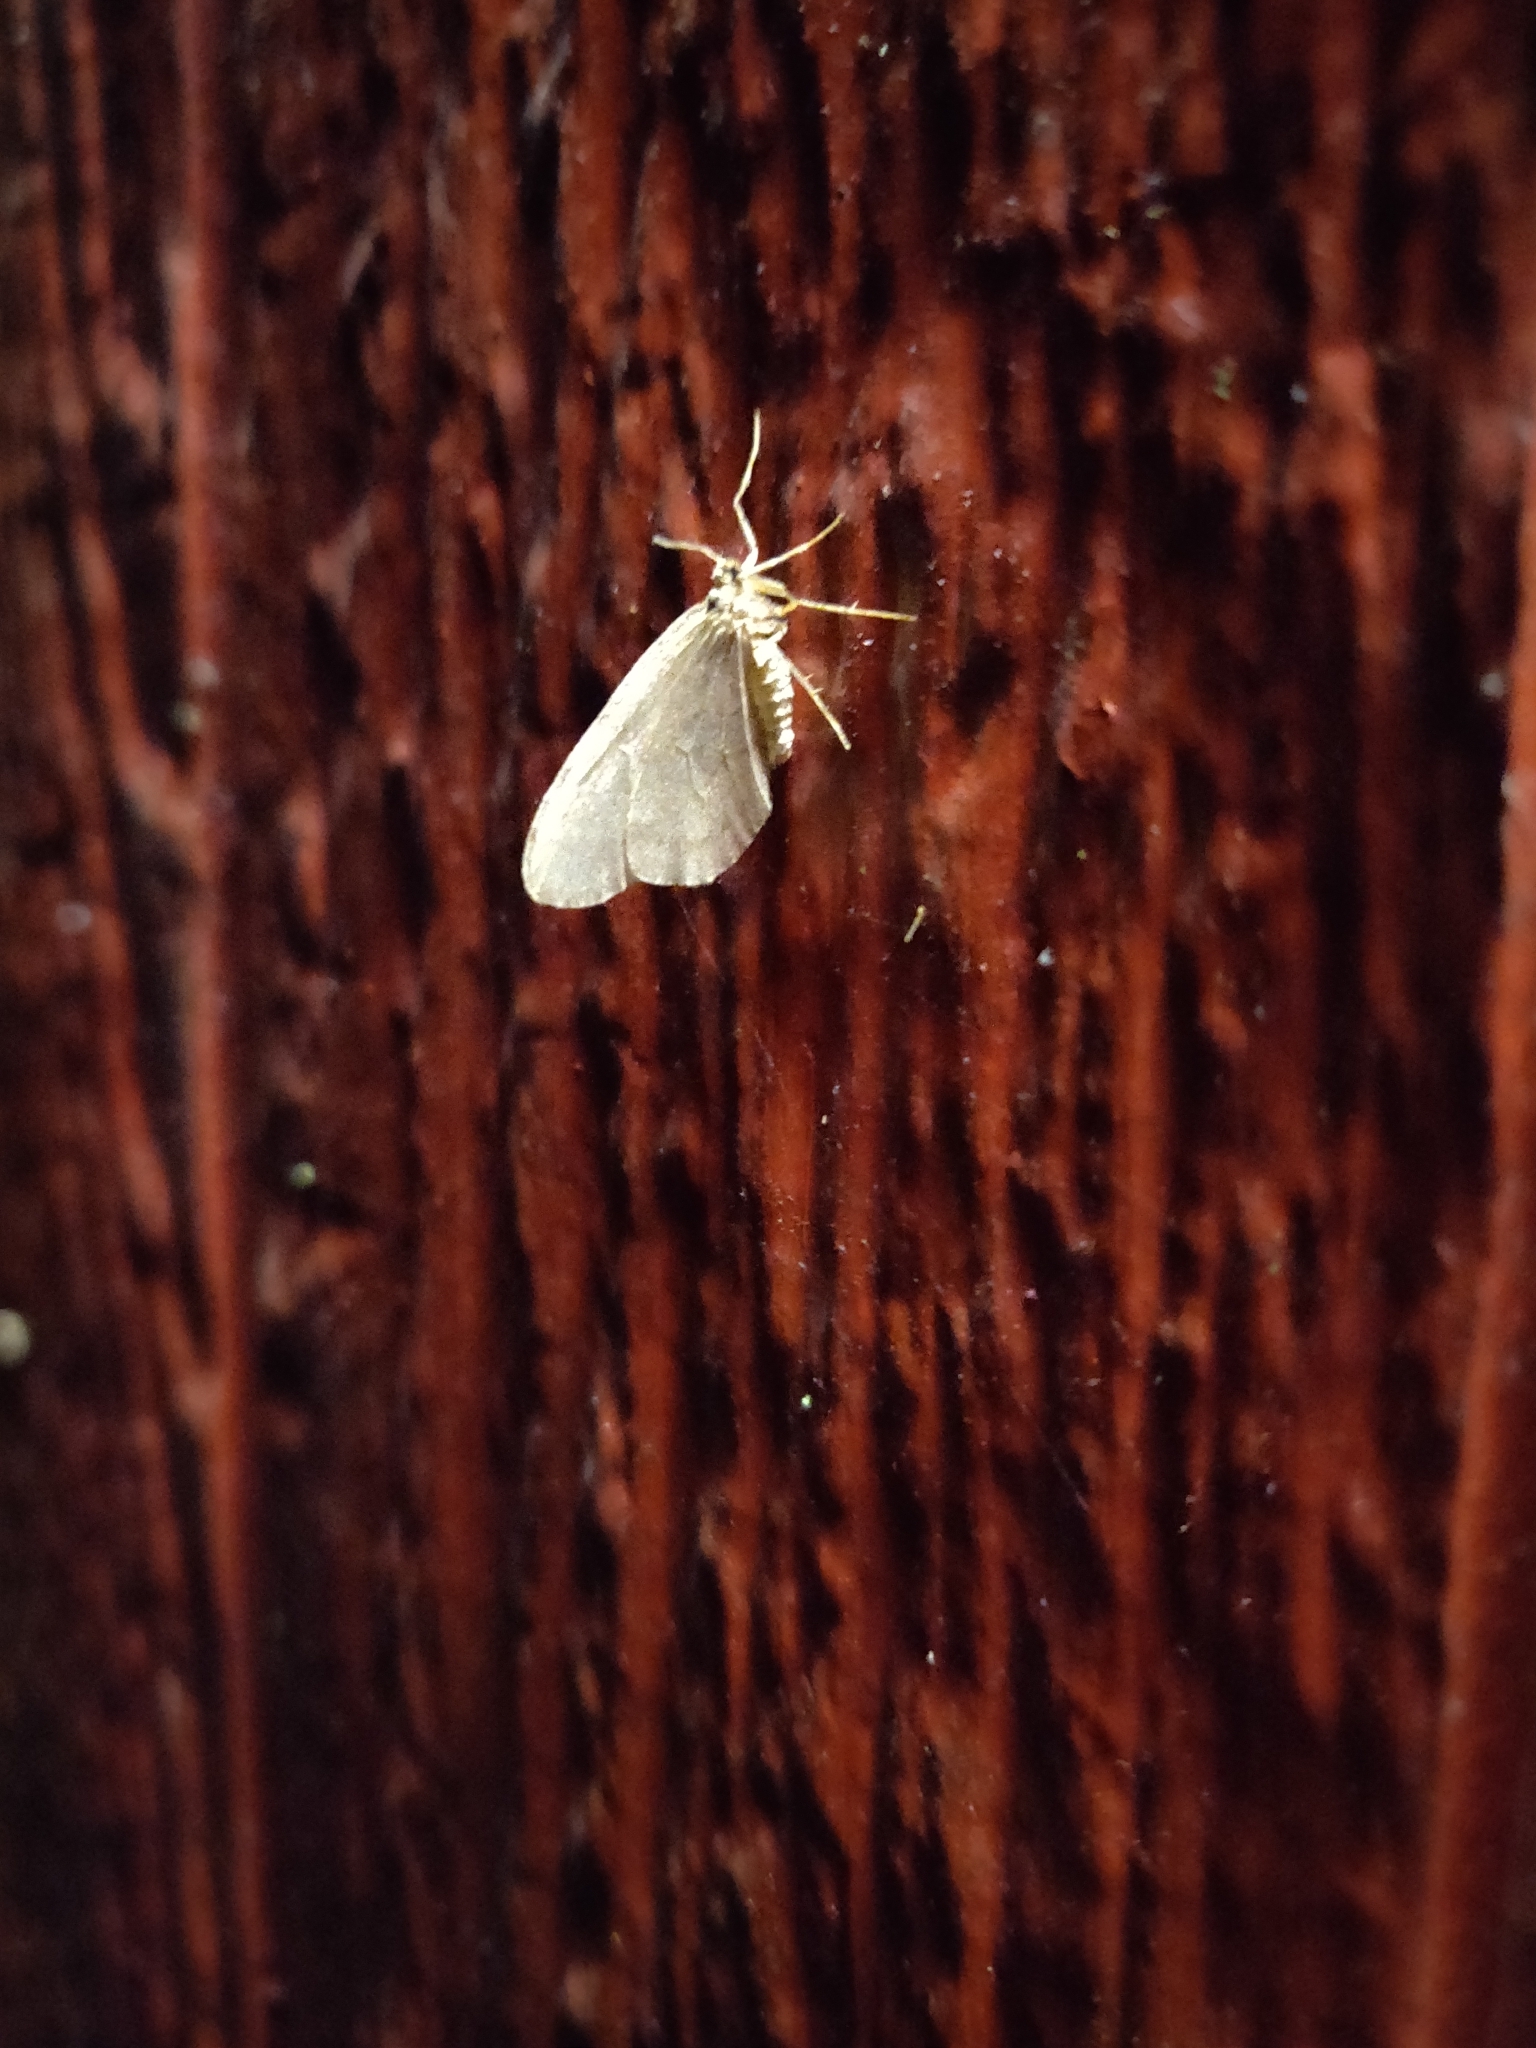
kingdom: Animalia
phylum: Arthropoda
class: Insecta
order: Lepidoptera
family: Geometridae
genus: Operophtera
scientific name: Operophtera brumata
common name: Winter moth
